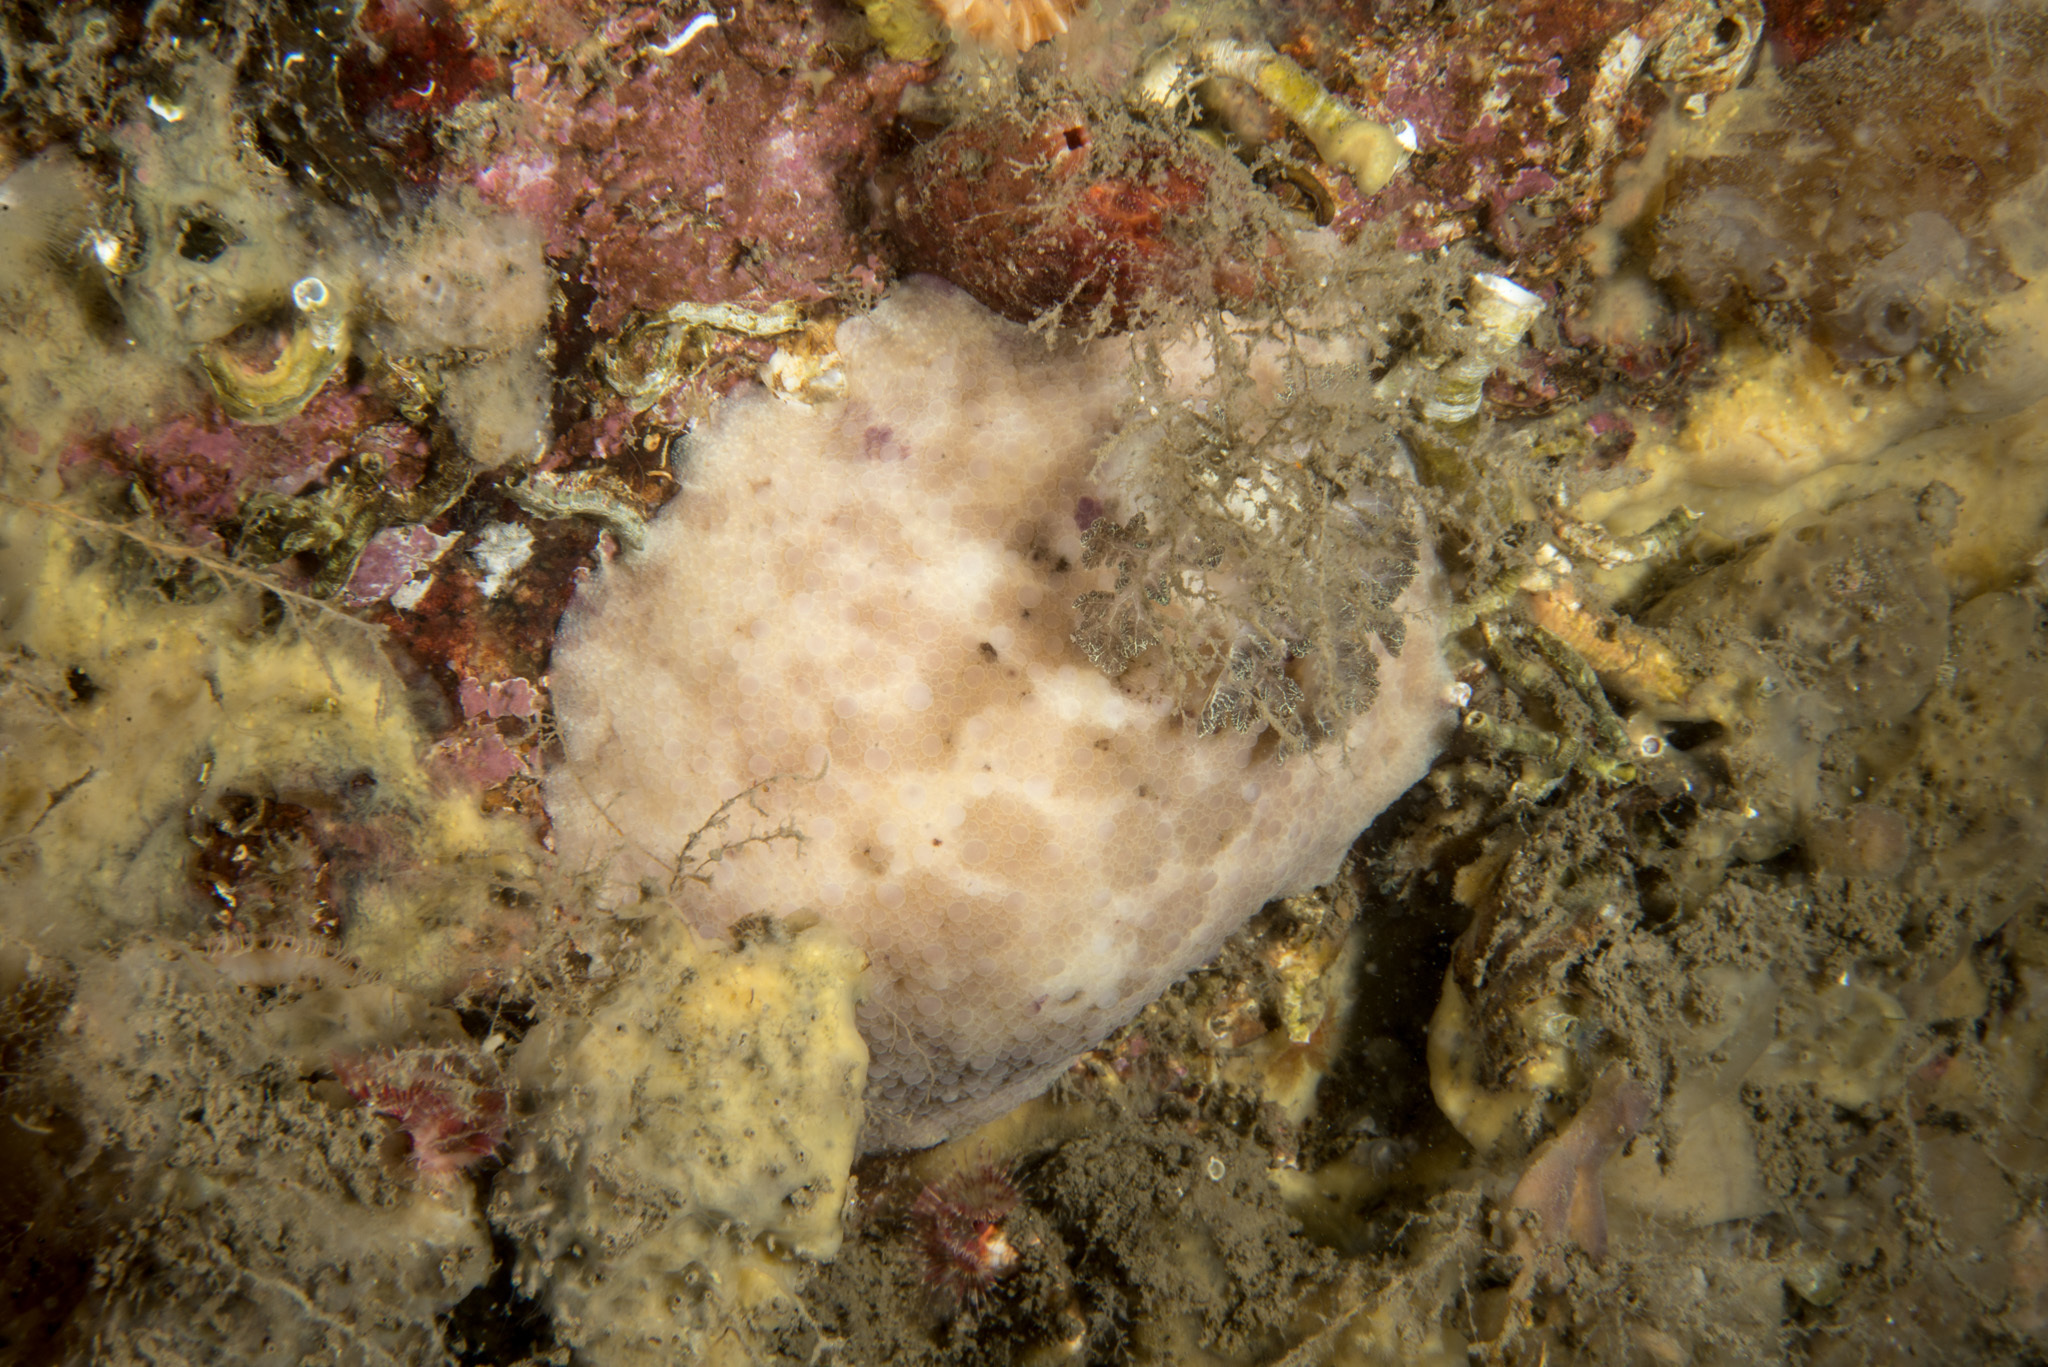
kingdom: Animalia
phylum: Mollusca
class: Gastropoda
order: Nudibranchia
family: Dorididae
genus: Doris
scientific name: Doris pseudoargus
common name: Sea lemon
